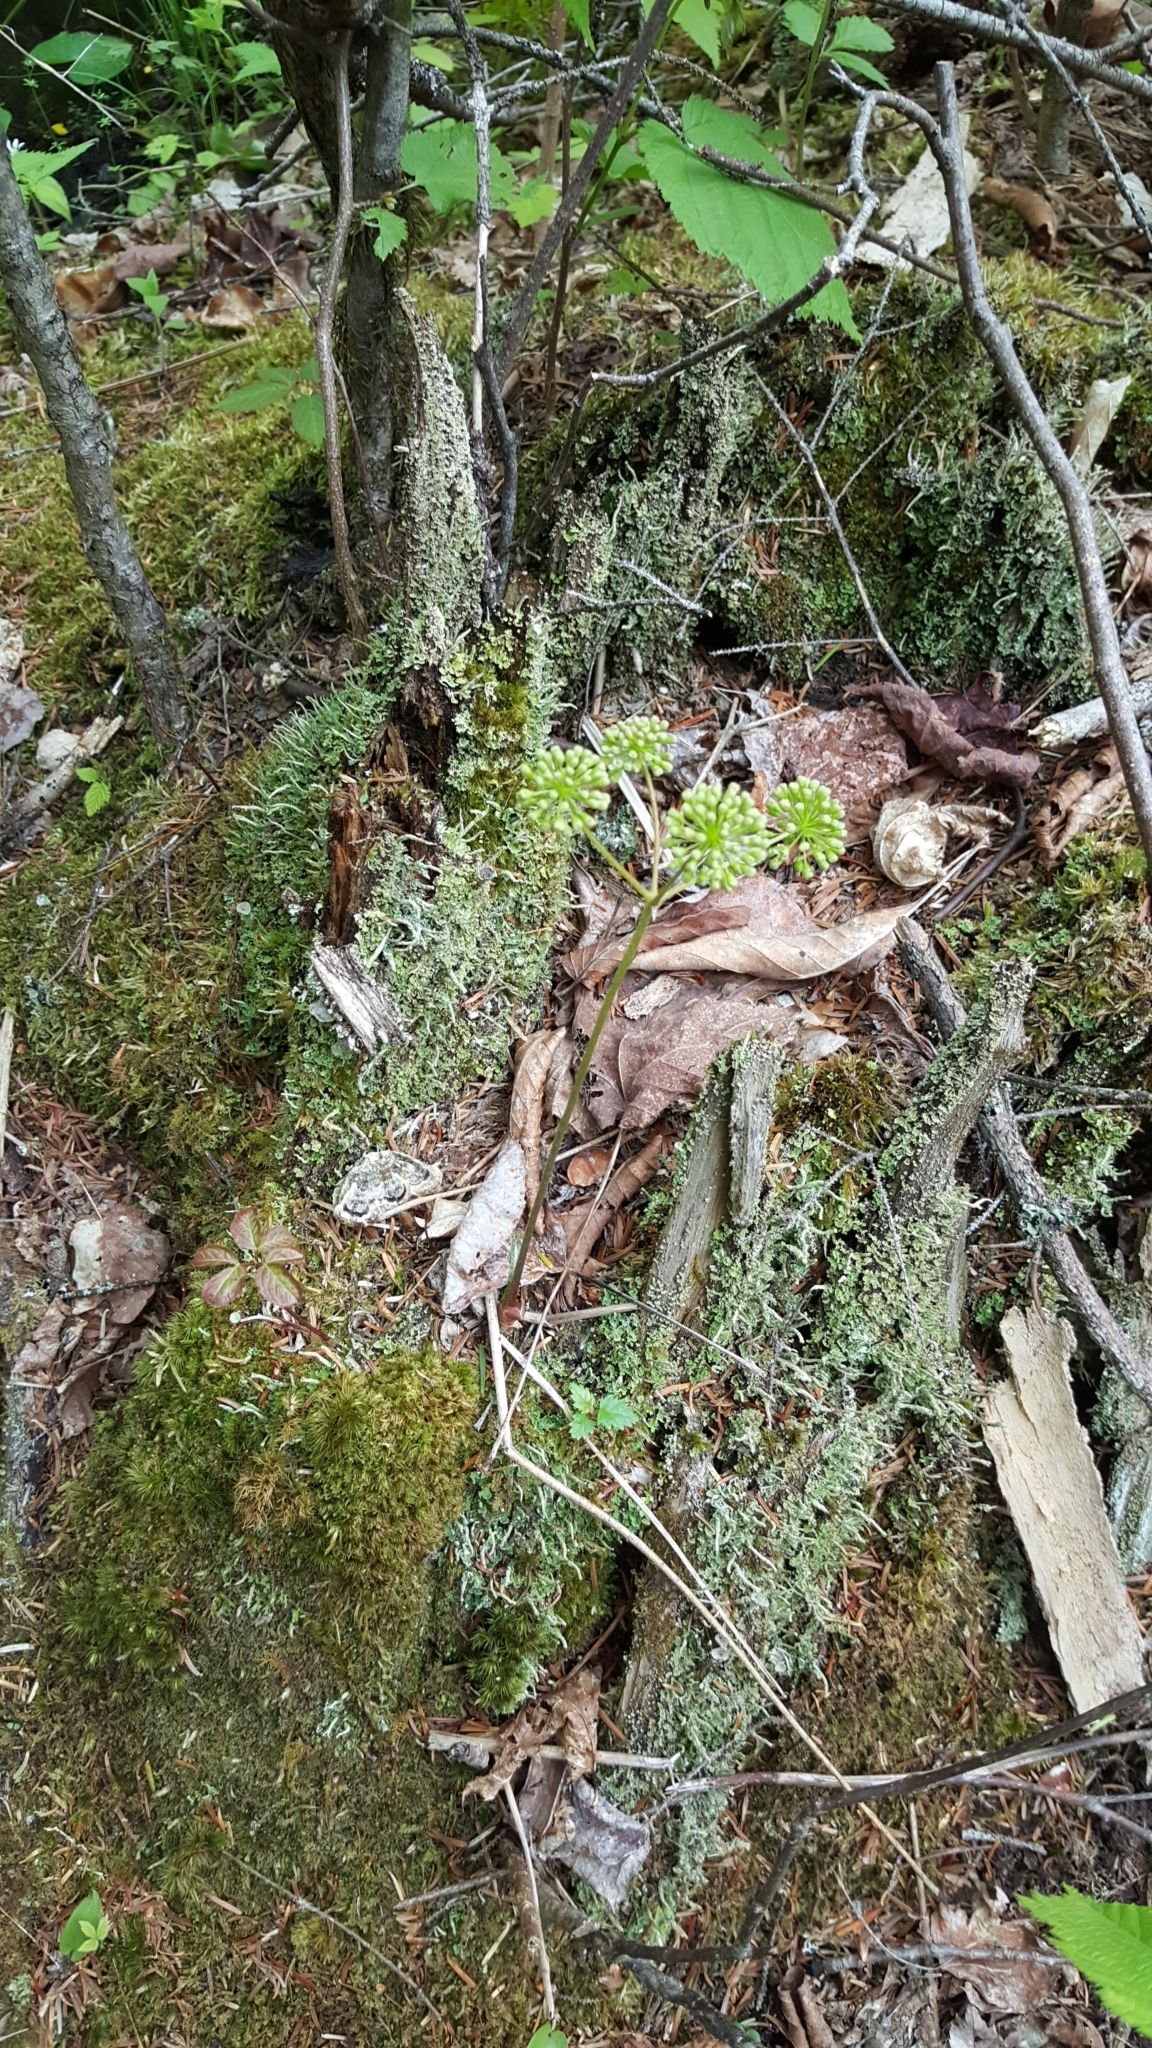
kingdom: Plantae
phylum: Tracheophyta
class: Magnoliopsida
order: Apiales
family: Araliaceae
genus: Aralia
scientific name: Aralia nudicaulis
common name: Wild sarsaparilla
